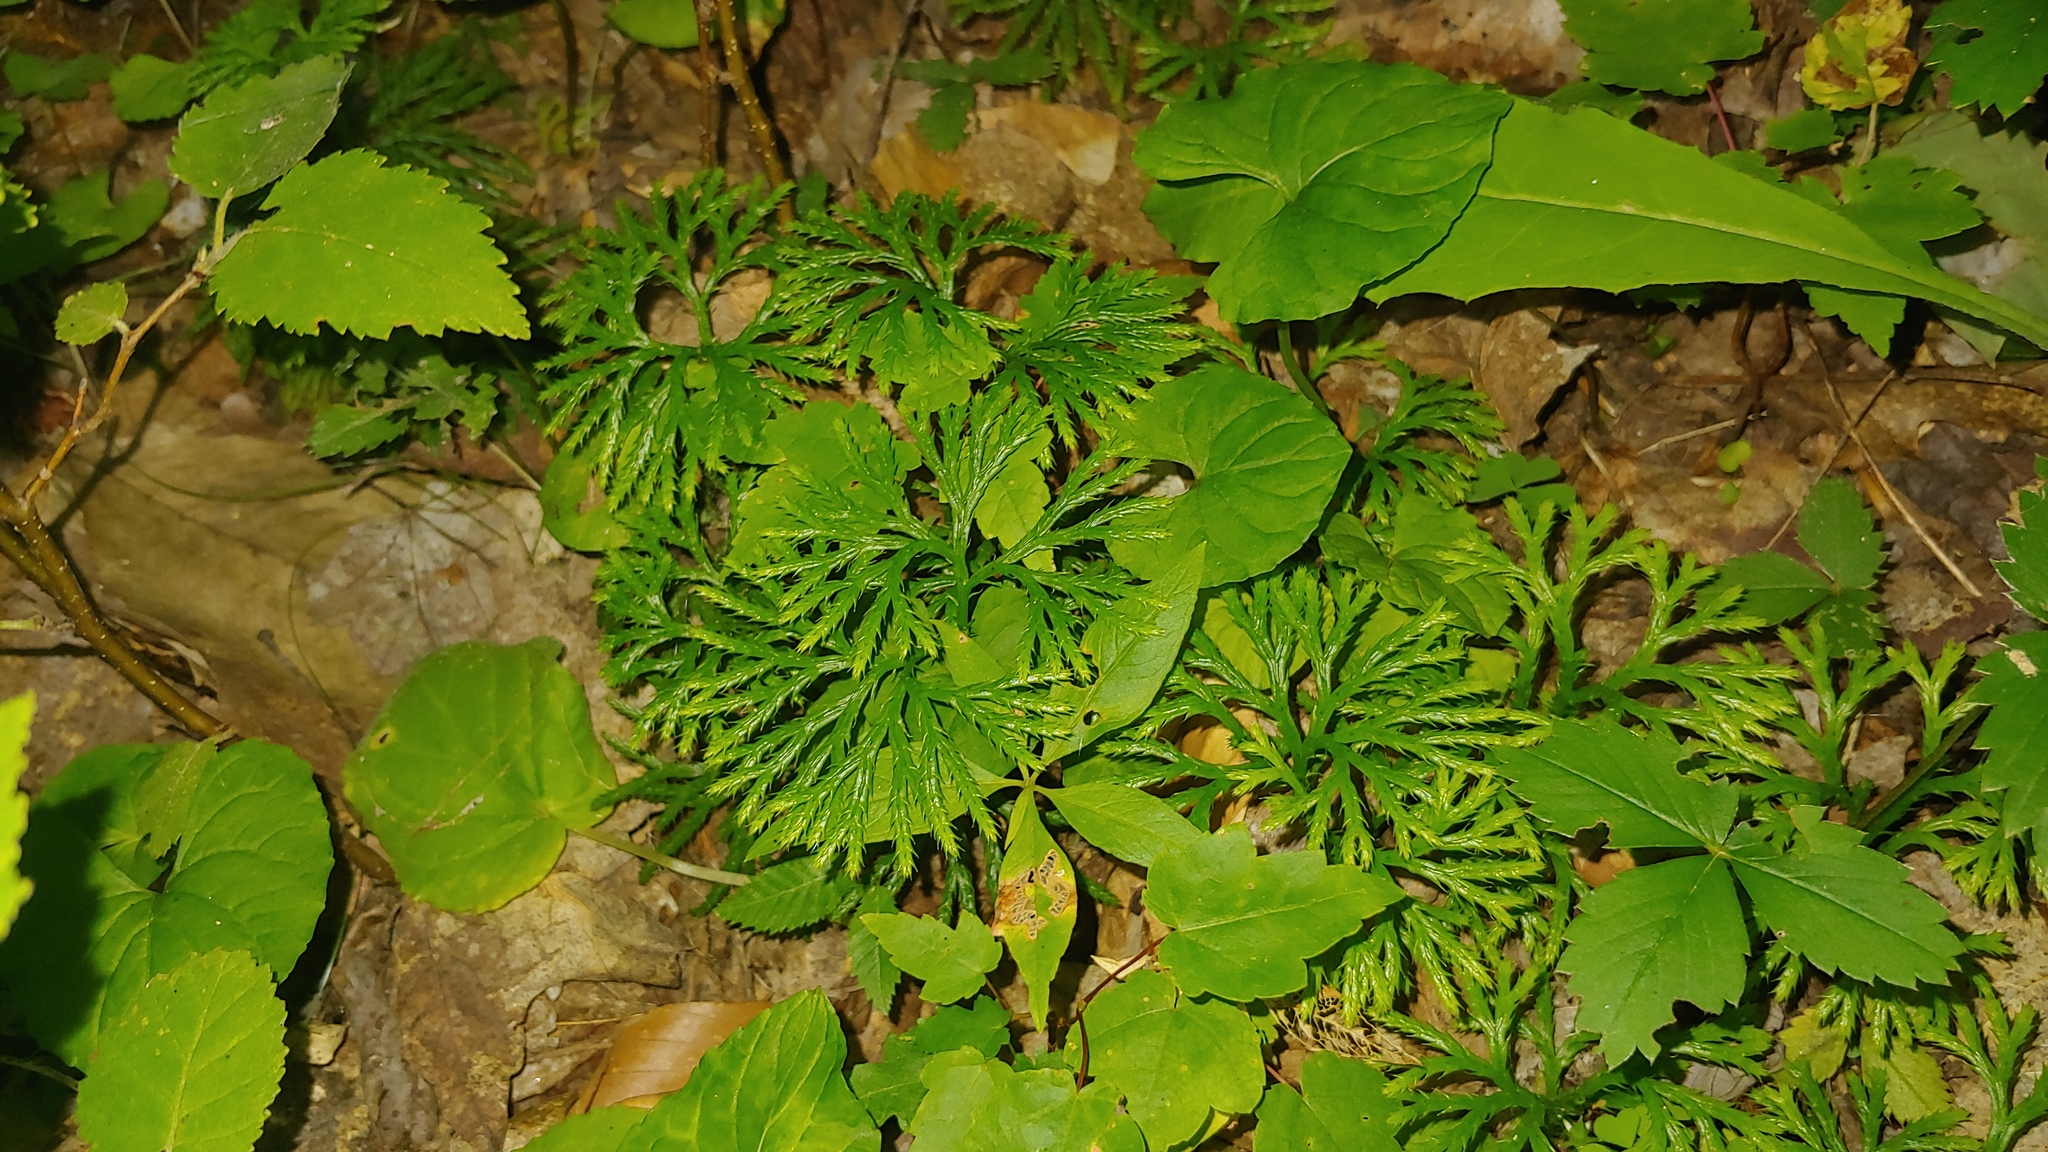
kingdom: Plantae
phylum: Tracheophyta
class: Lycopodiopsida
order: Lycopodiales
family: Lycopodiaceae
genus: Diphasiastrum
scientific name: Diphasiastrum digitatum
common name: Southern running-pine
